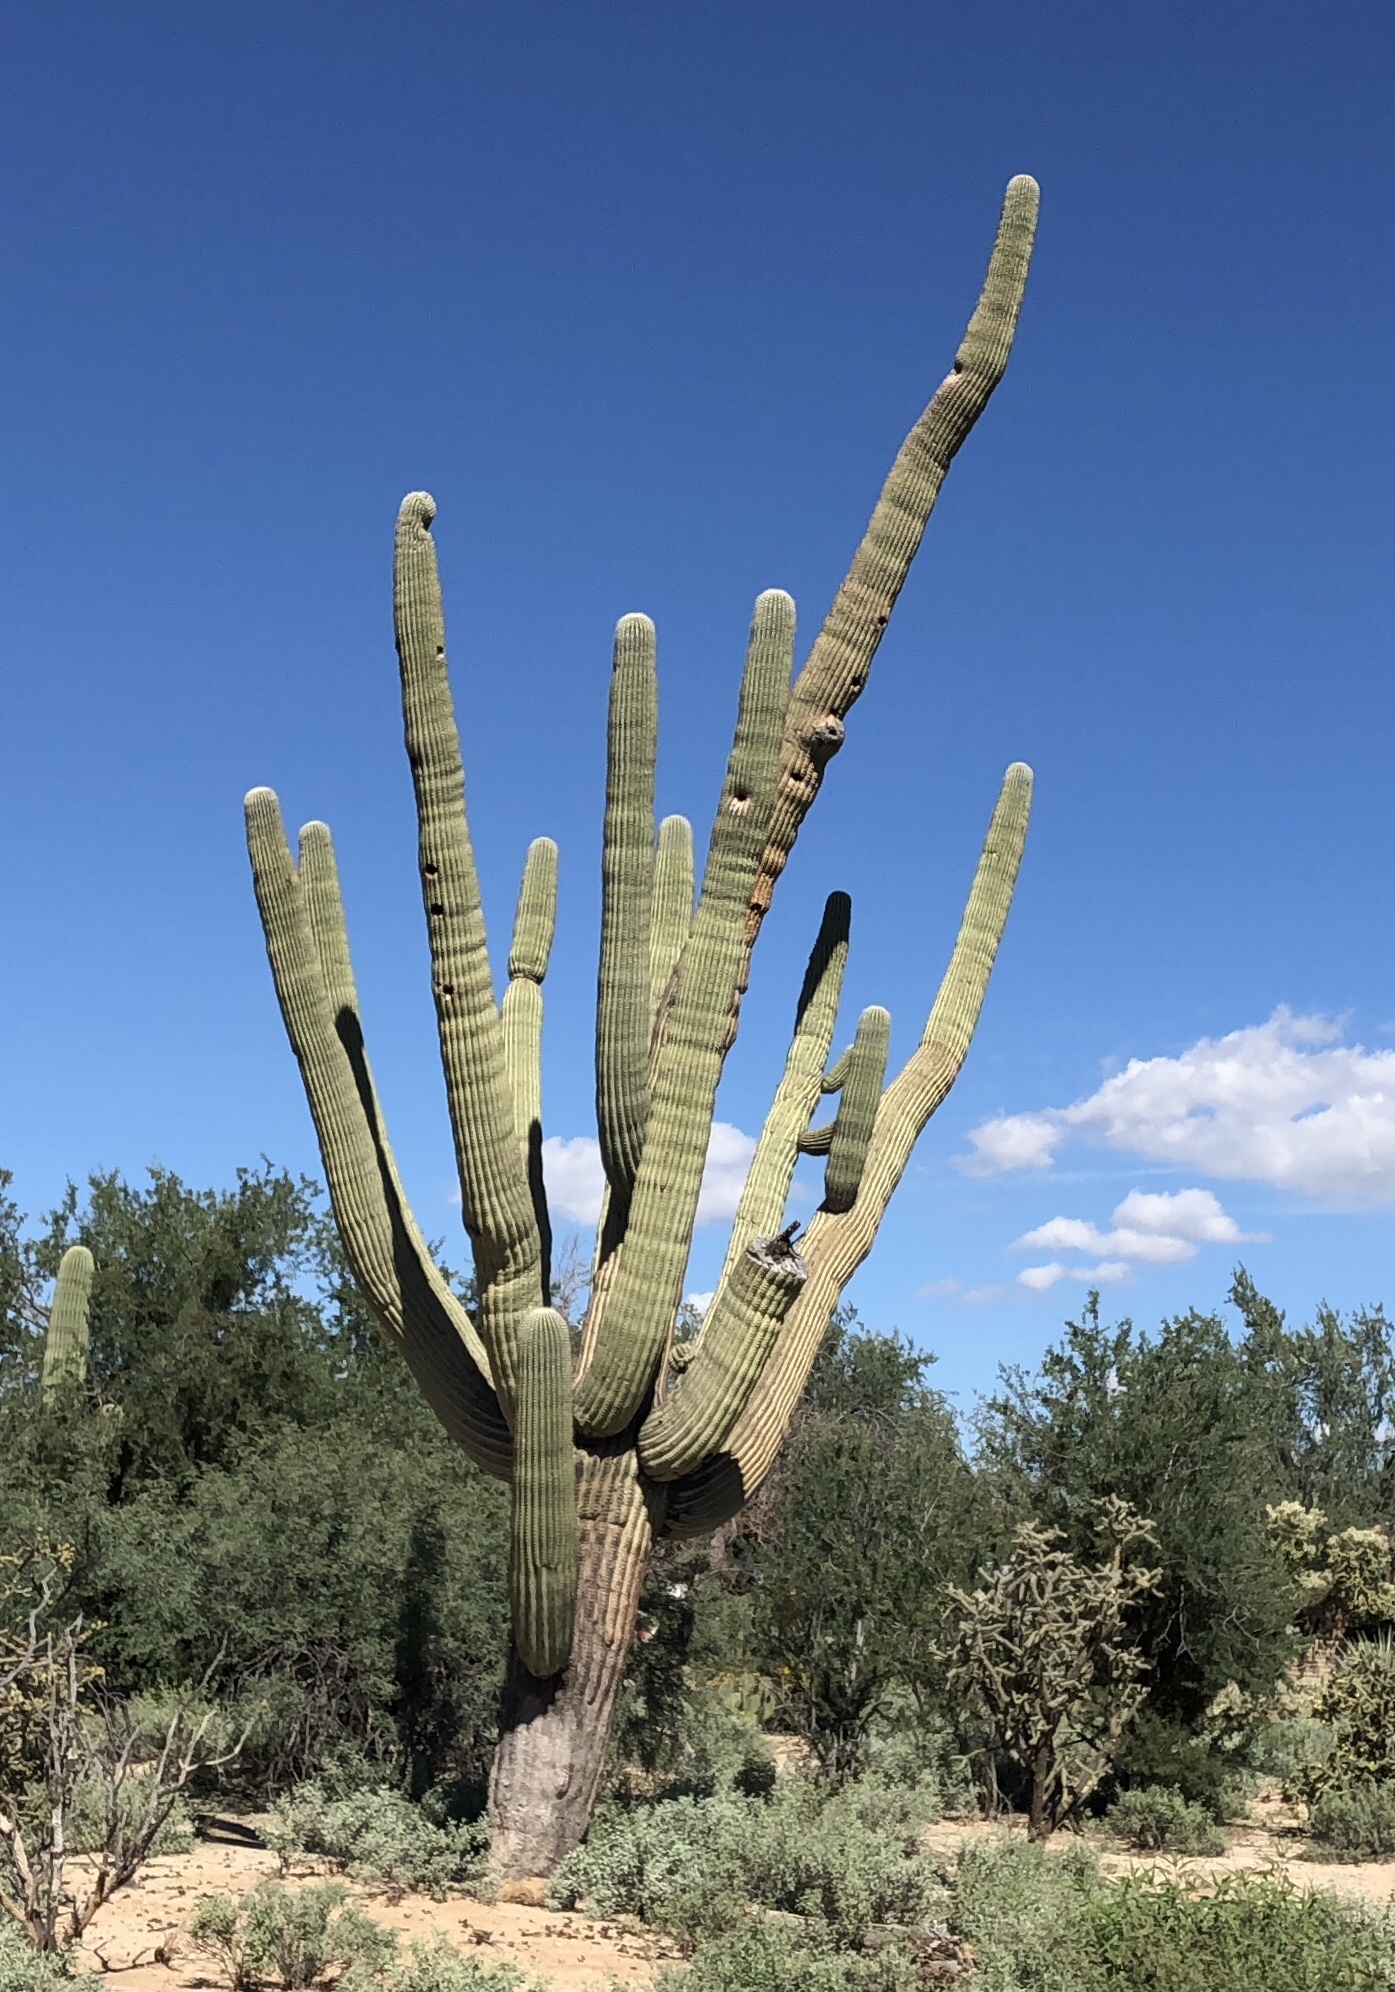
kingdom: Plantae
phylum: Tracheophyta
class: Magnoliopsida
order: Caryophyllales
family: Cactaceae
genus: Carnegiea
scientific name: Carnegiea gigantea
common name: Saguaro
